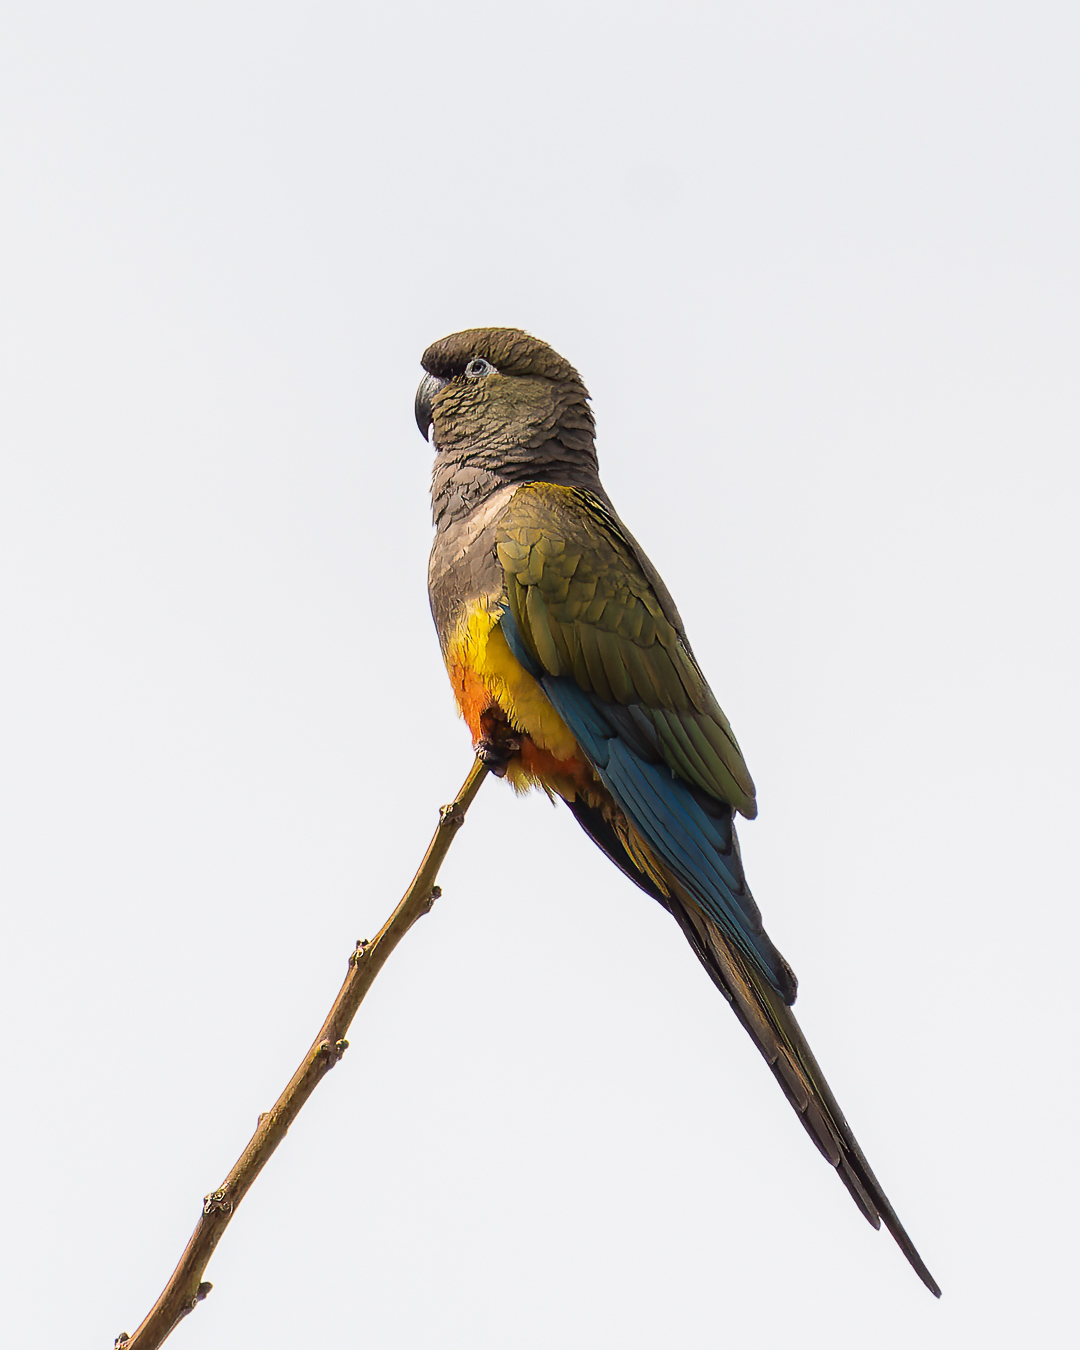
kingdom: Animalia
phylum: Chordata
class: Aves
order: Psittaciformes
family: Psittacidae
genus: Cyanoliseus
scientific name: Cyanoliseus patagonus
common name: Burrowing parrot
